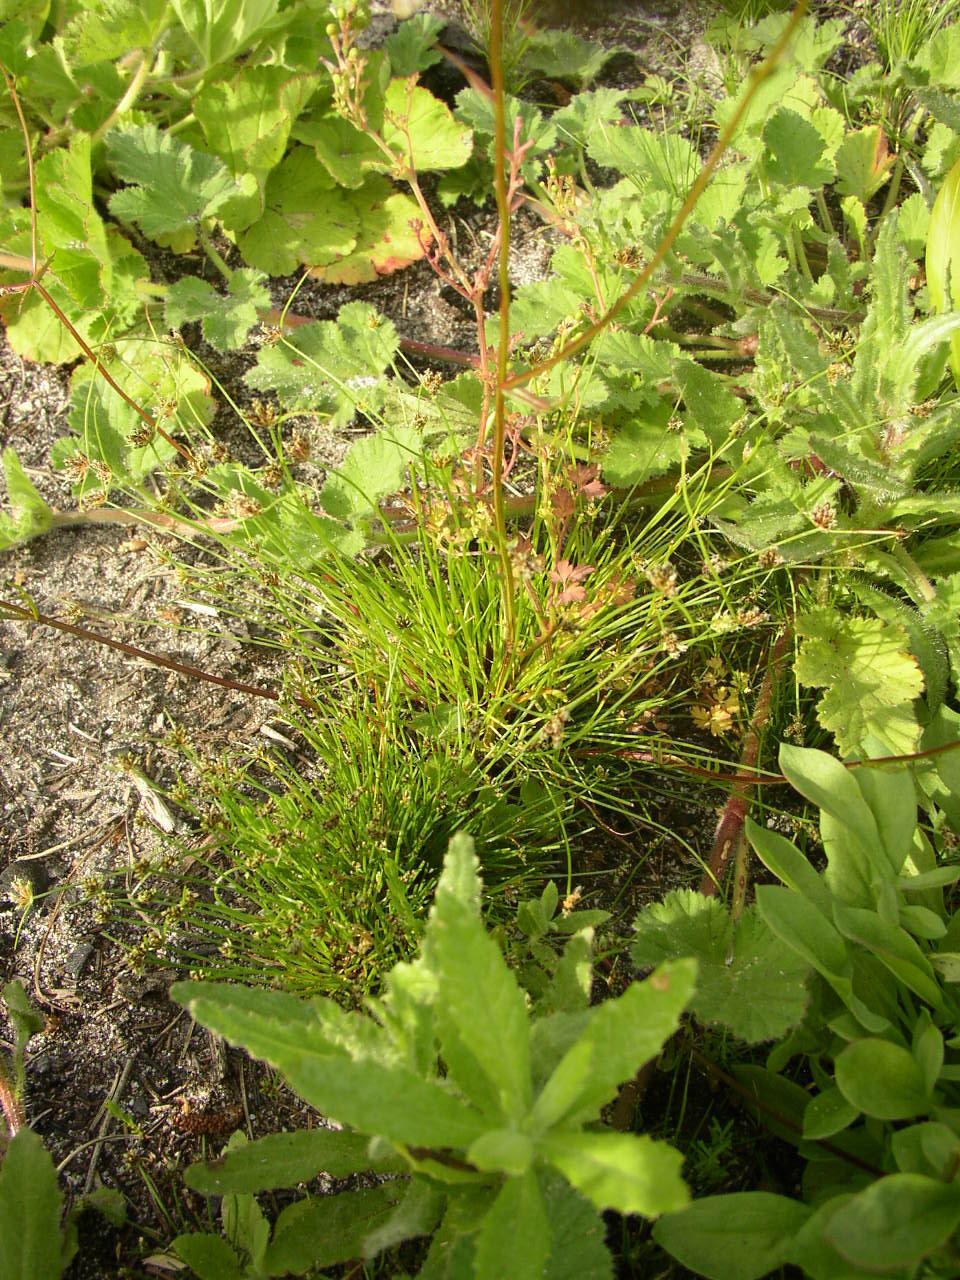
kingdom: Plantae
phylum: Tracheophyta
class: Liliopsida
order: Poales
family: Cyperaceae
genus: Isolepis
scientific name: Isolepis marginata
